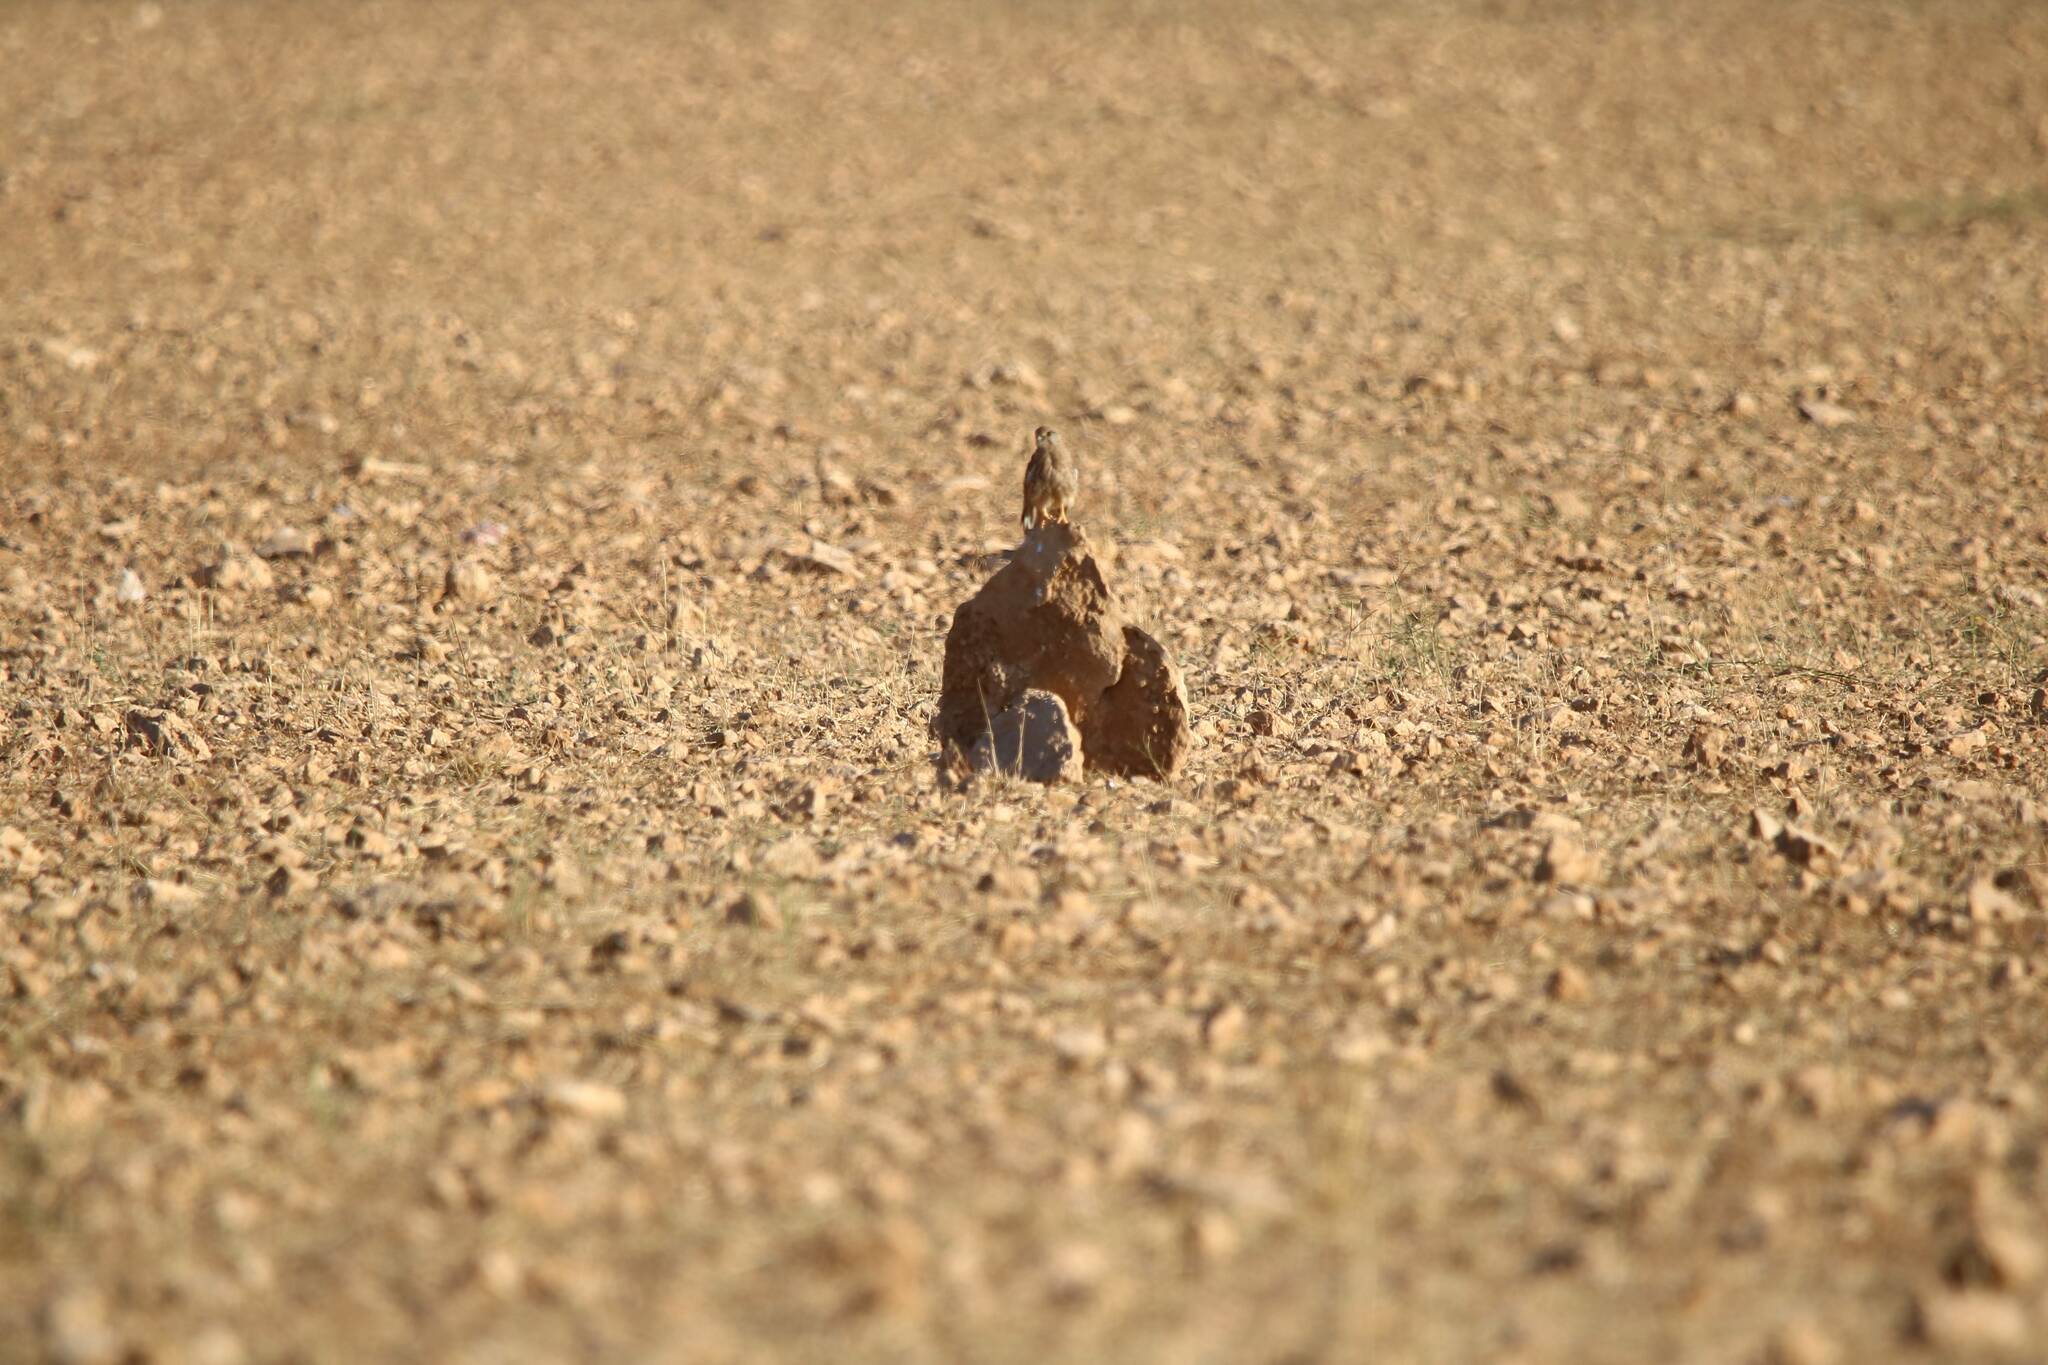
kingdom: Animalia
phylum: Chordata
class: Aves
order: Falconiformes
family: Falconidae
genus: Falco
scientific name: Falco tinnunculus
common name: Common kestrel
